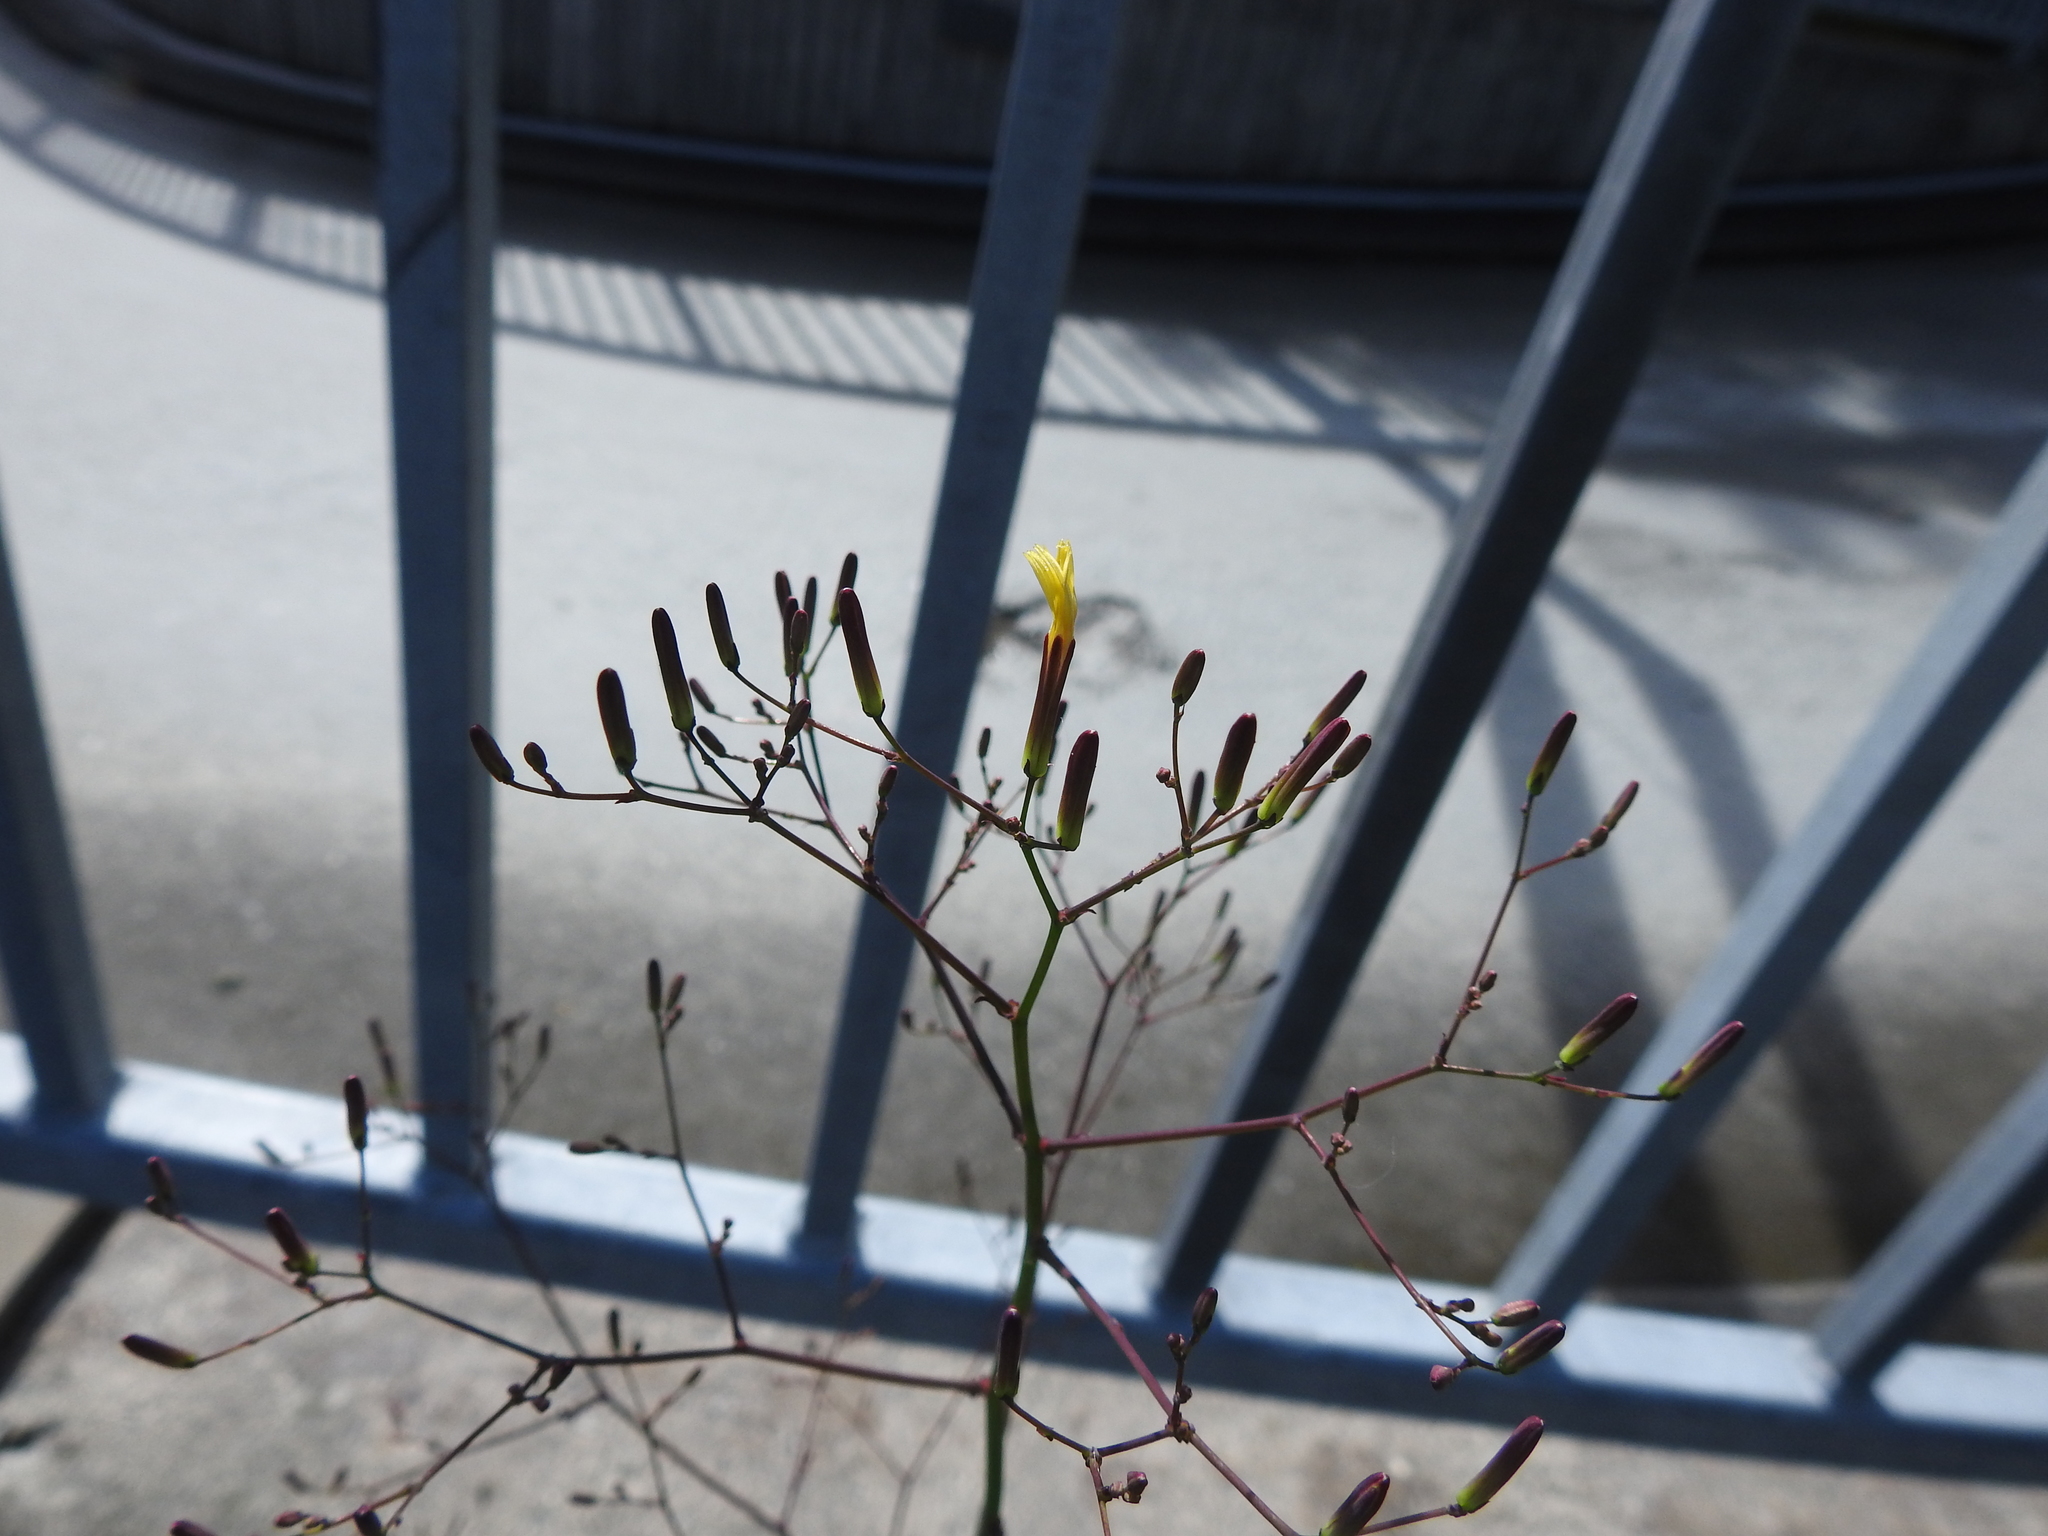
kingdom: Plantae
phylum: Tracheophyta
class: Magnoliopsida
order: Asterales
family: Asteraceae
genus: Mycelis
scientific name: Mycelis muralis
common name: Wall lettuce
